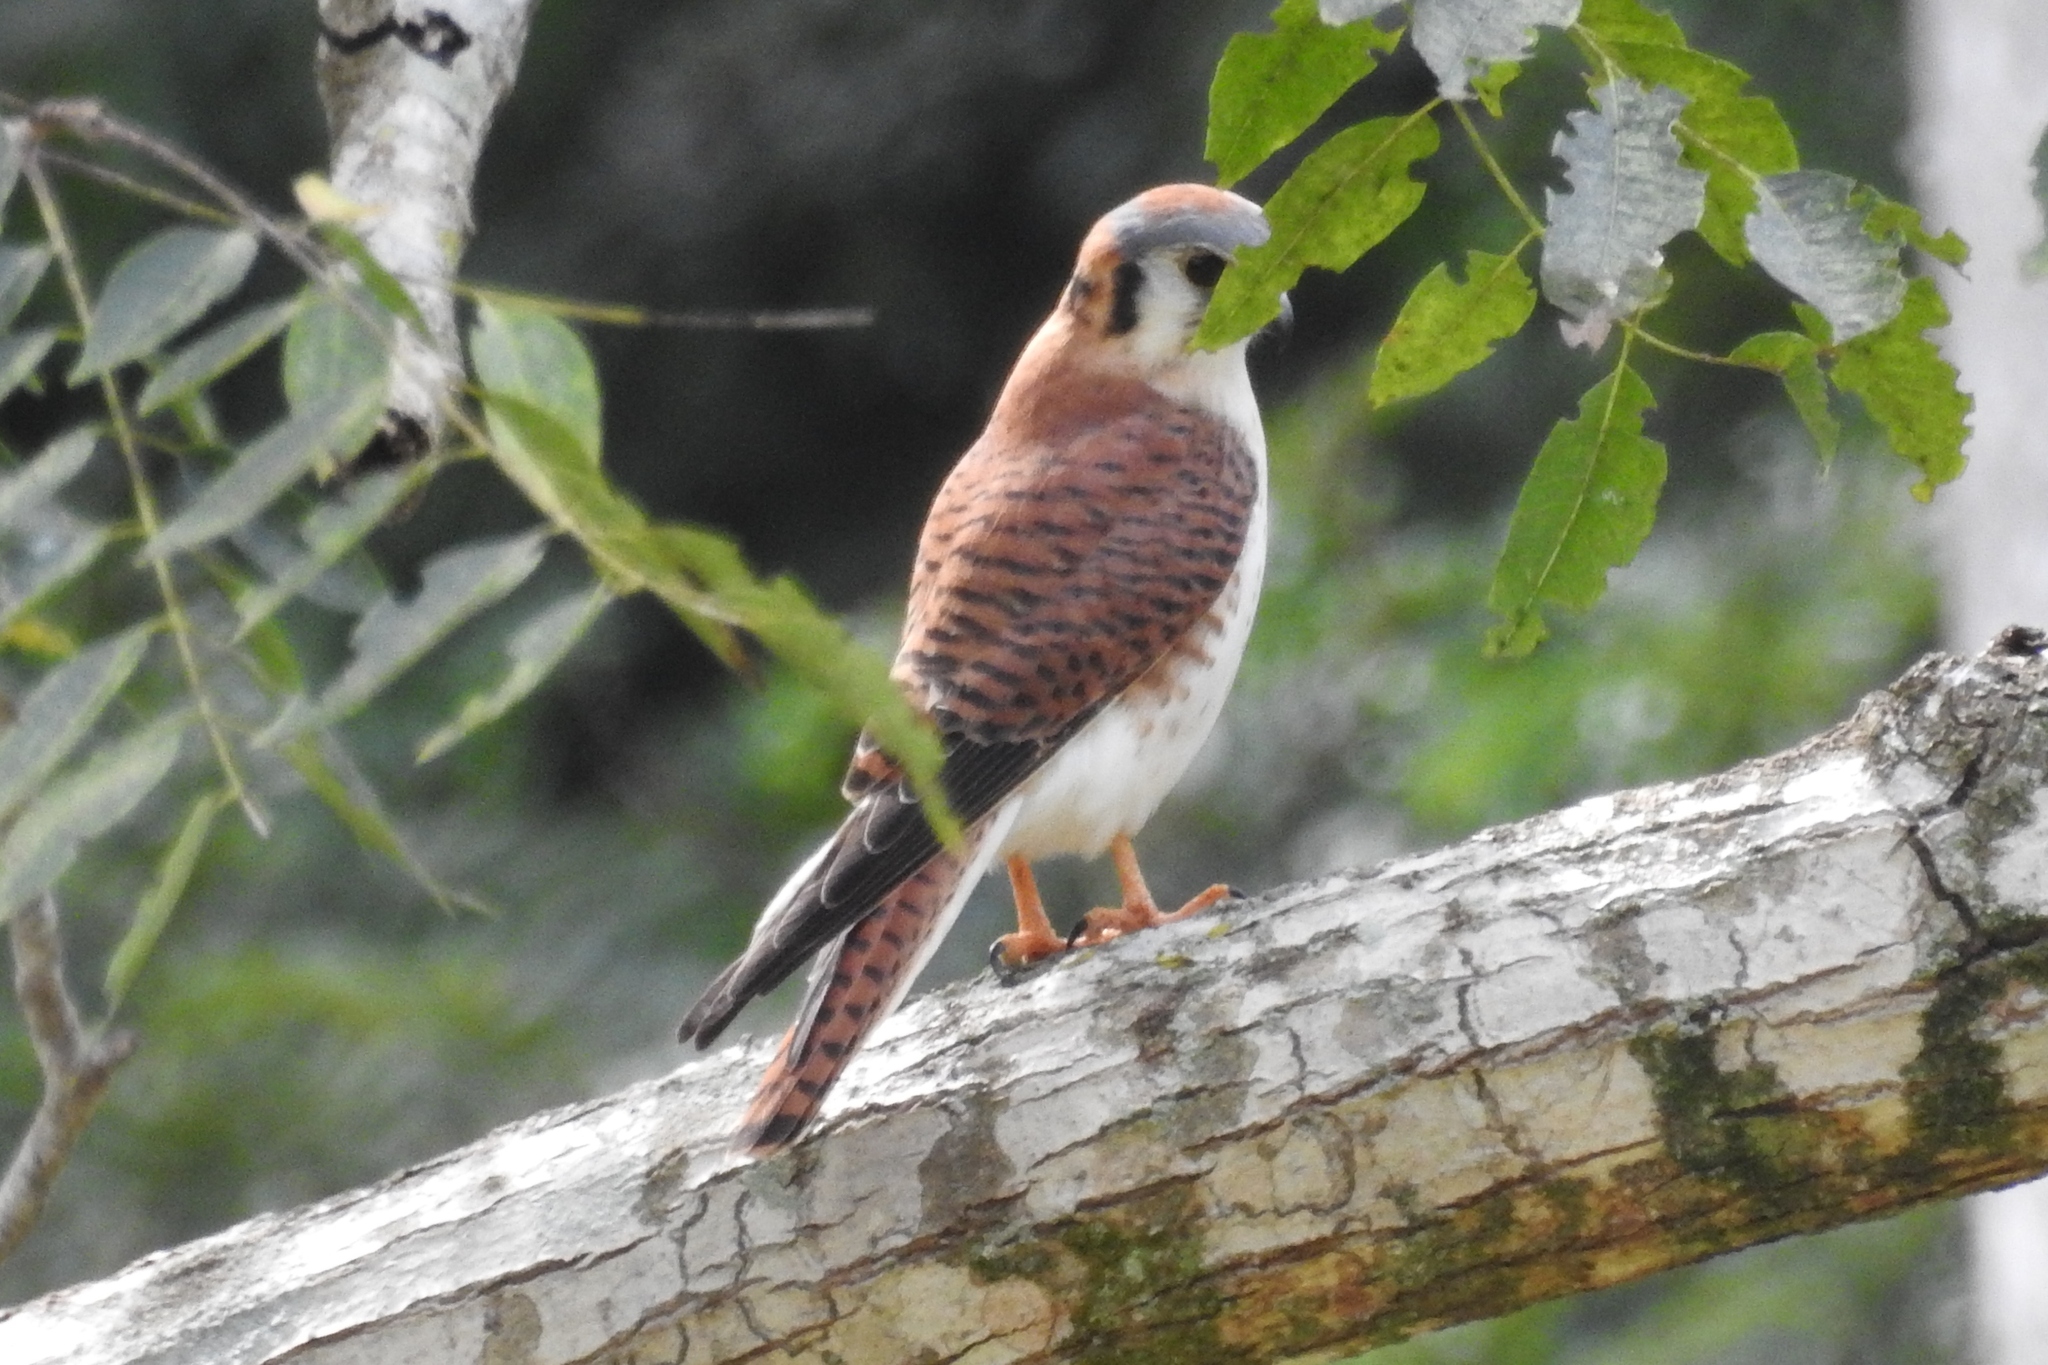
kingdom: Animalia
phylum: Chordata
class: Aves
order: Falconiformes
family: Falconidae
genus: Falco
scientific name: Falco sparverius
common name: American kestrel
